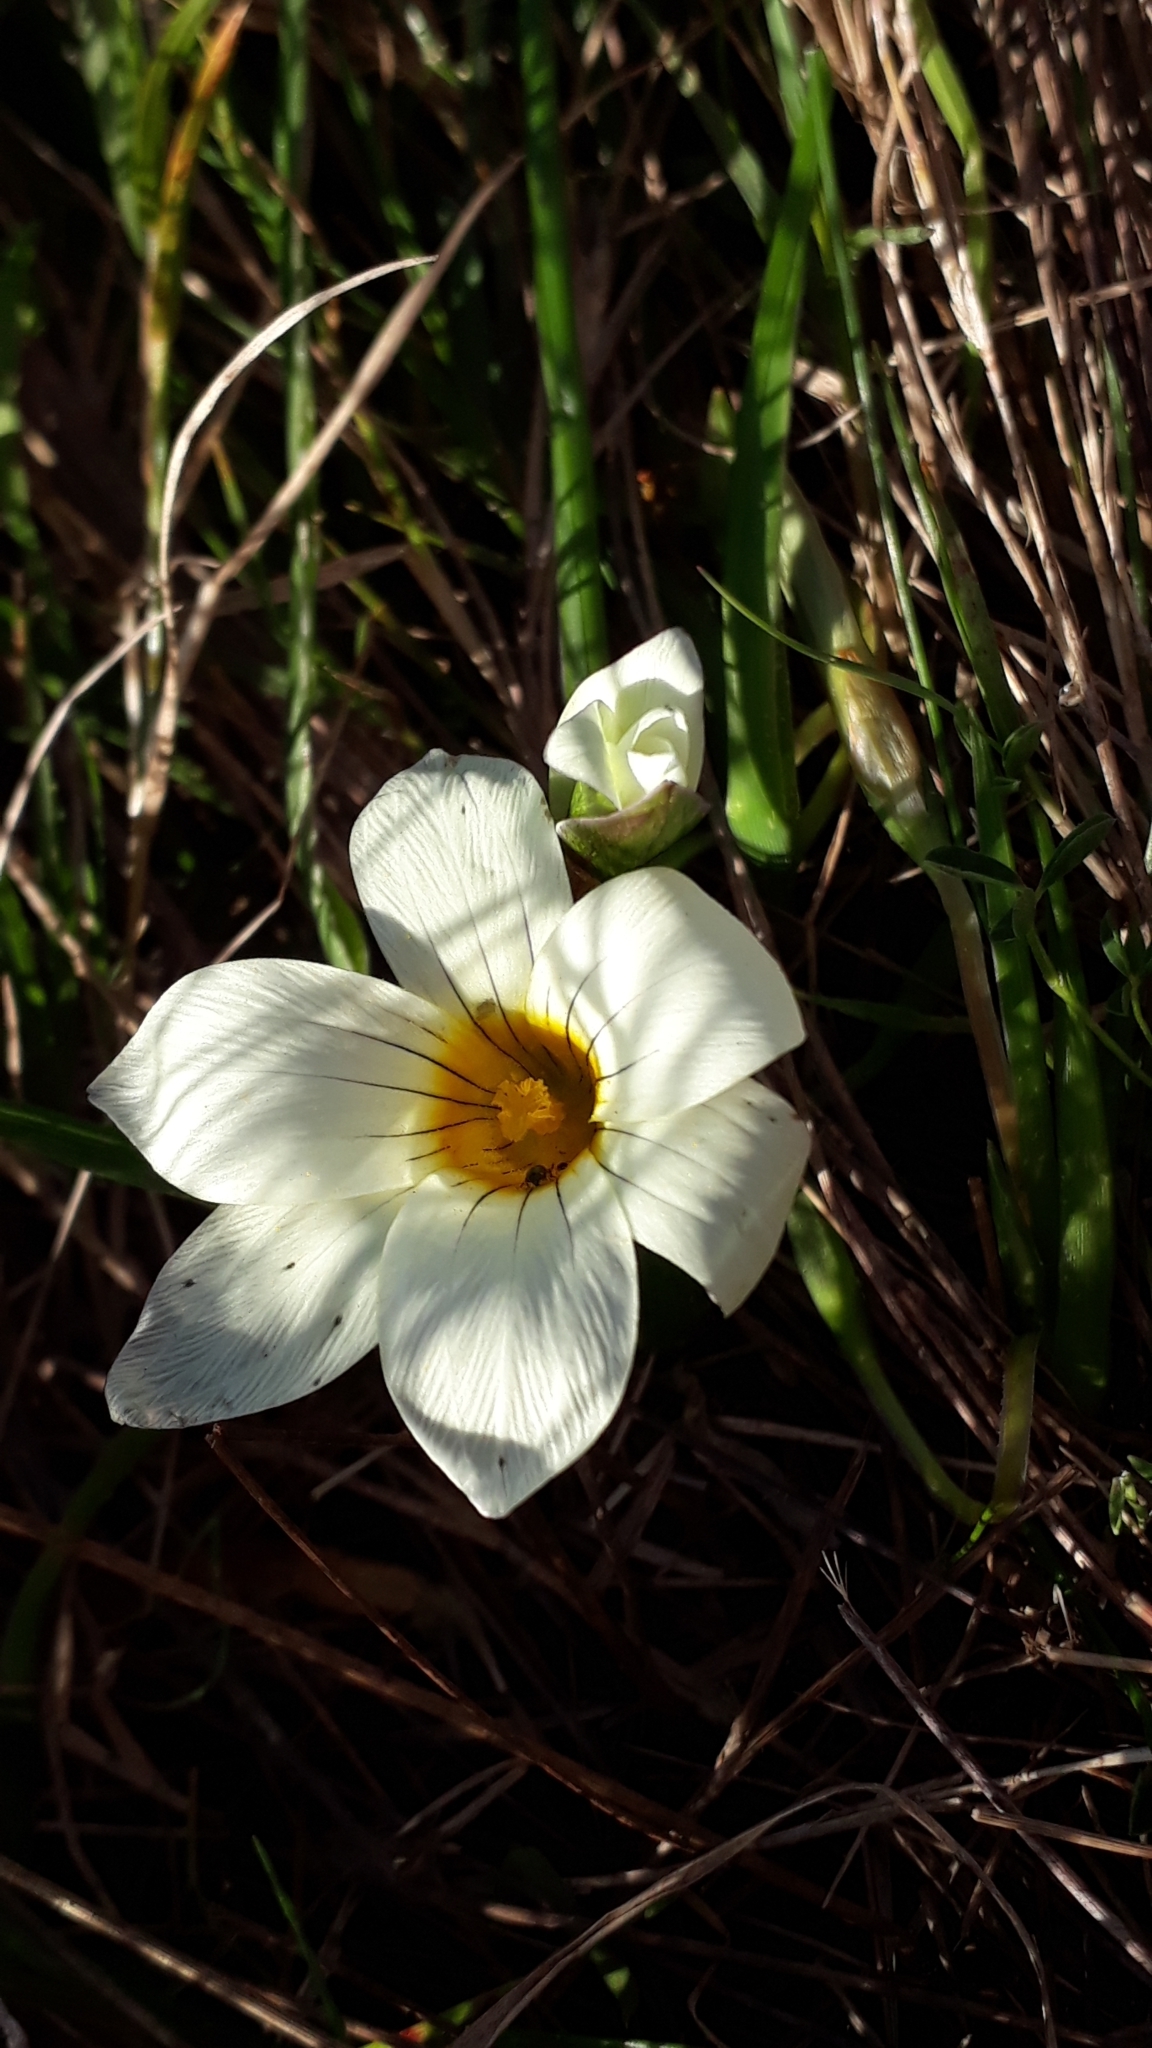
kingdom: Plantae
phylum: Tracheophyta
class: Liliopsida
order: Asparagales
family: Iridaceae
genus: Romulea
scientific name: Romulea flava
